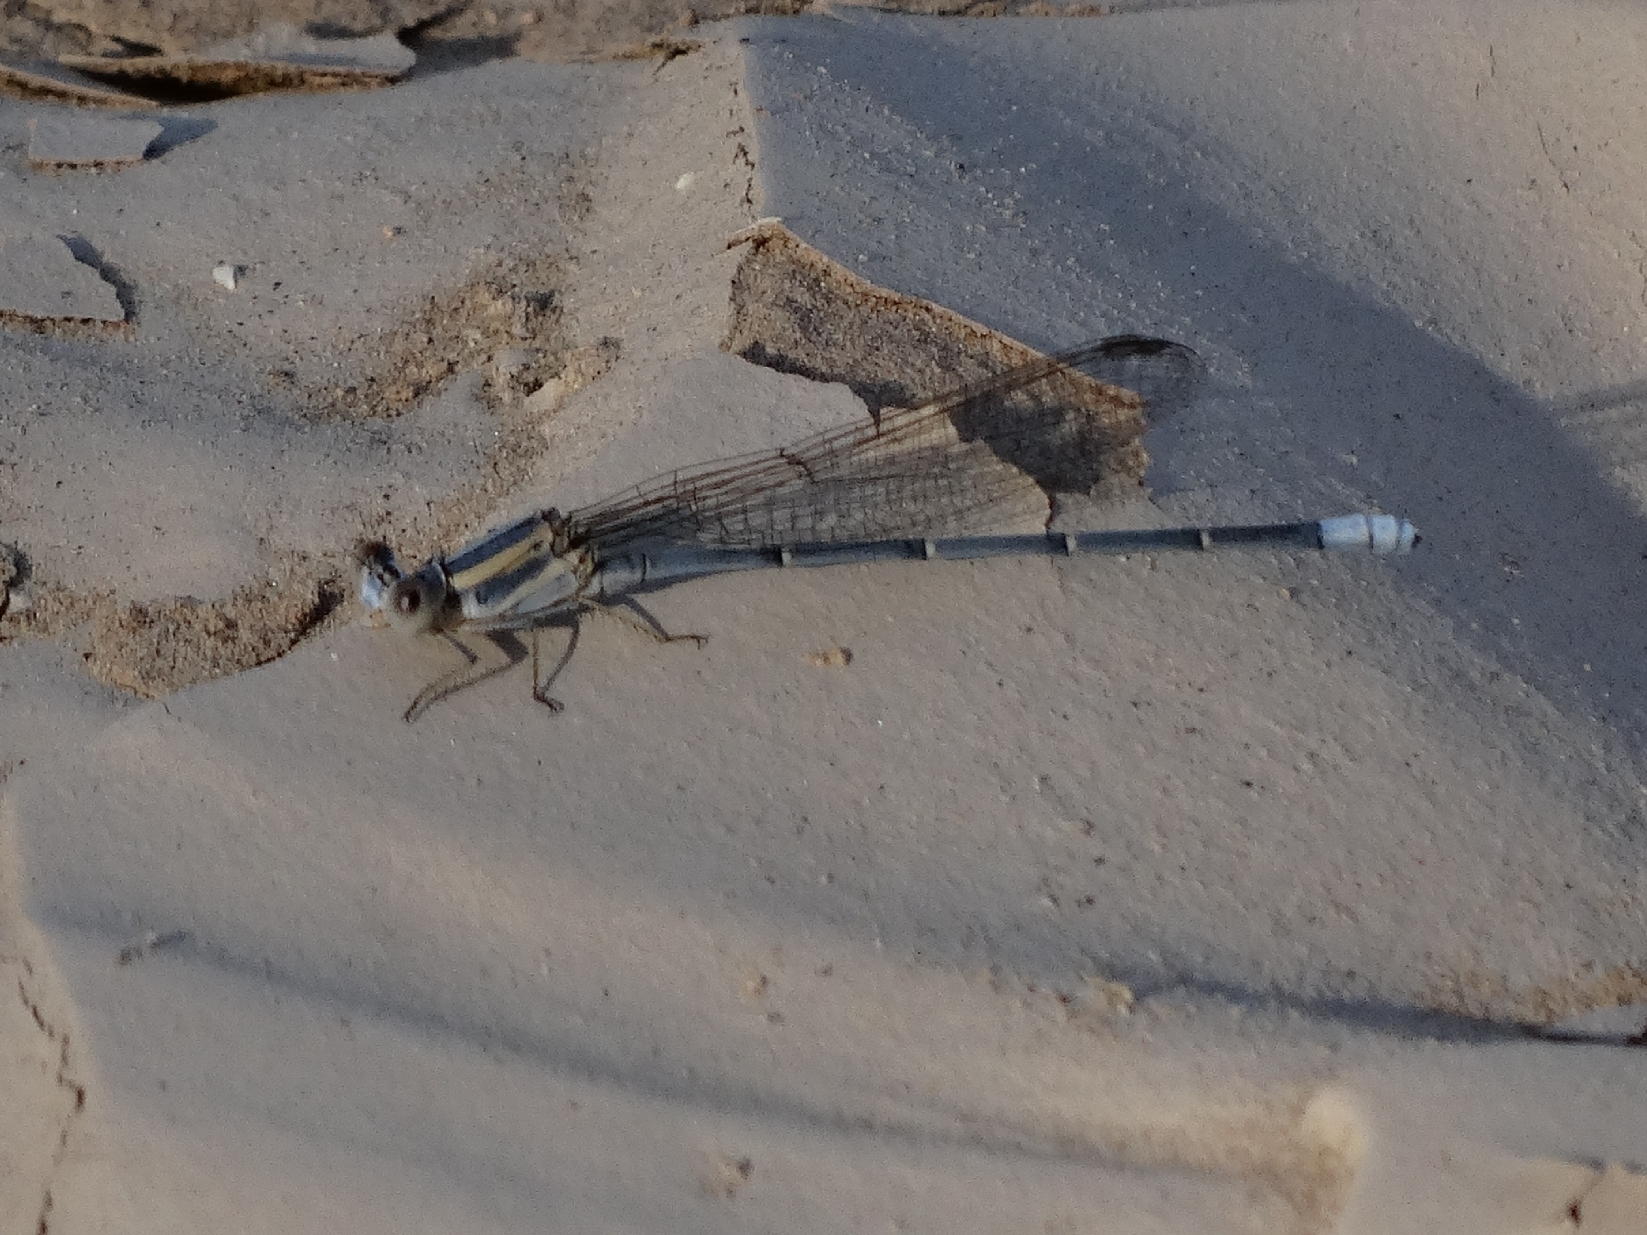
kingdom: Animalia
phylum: Arthropoda
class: Insecta
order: Odonata
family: Coenagrionidae
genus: Argia
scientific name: Argia moesta
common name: Powdered dancer
